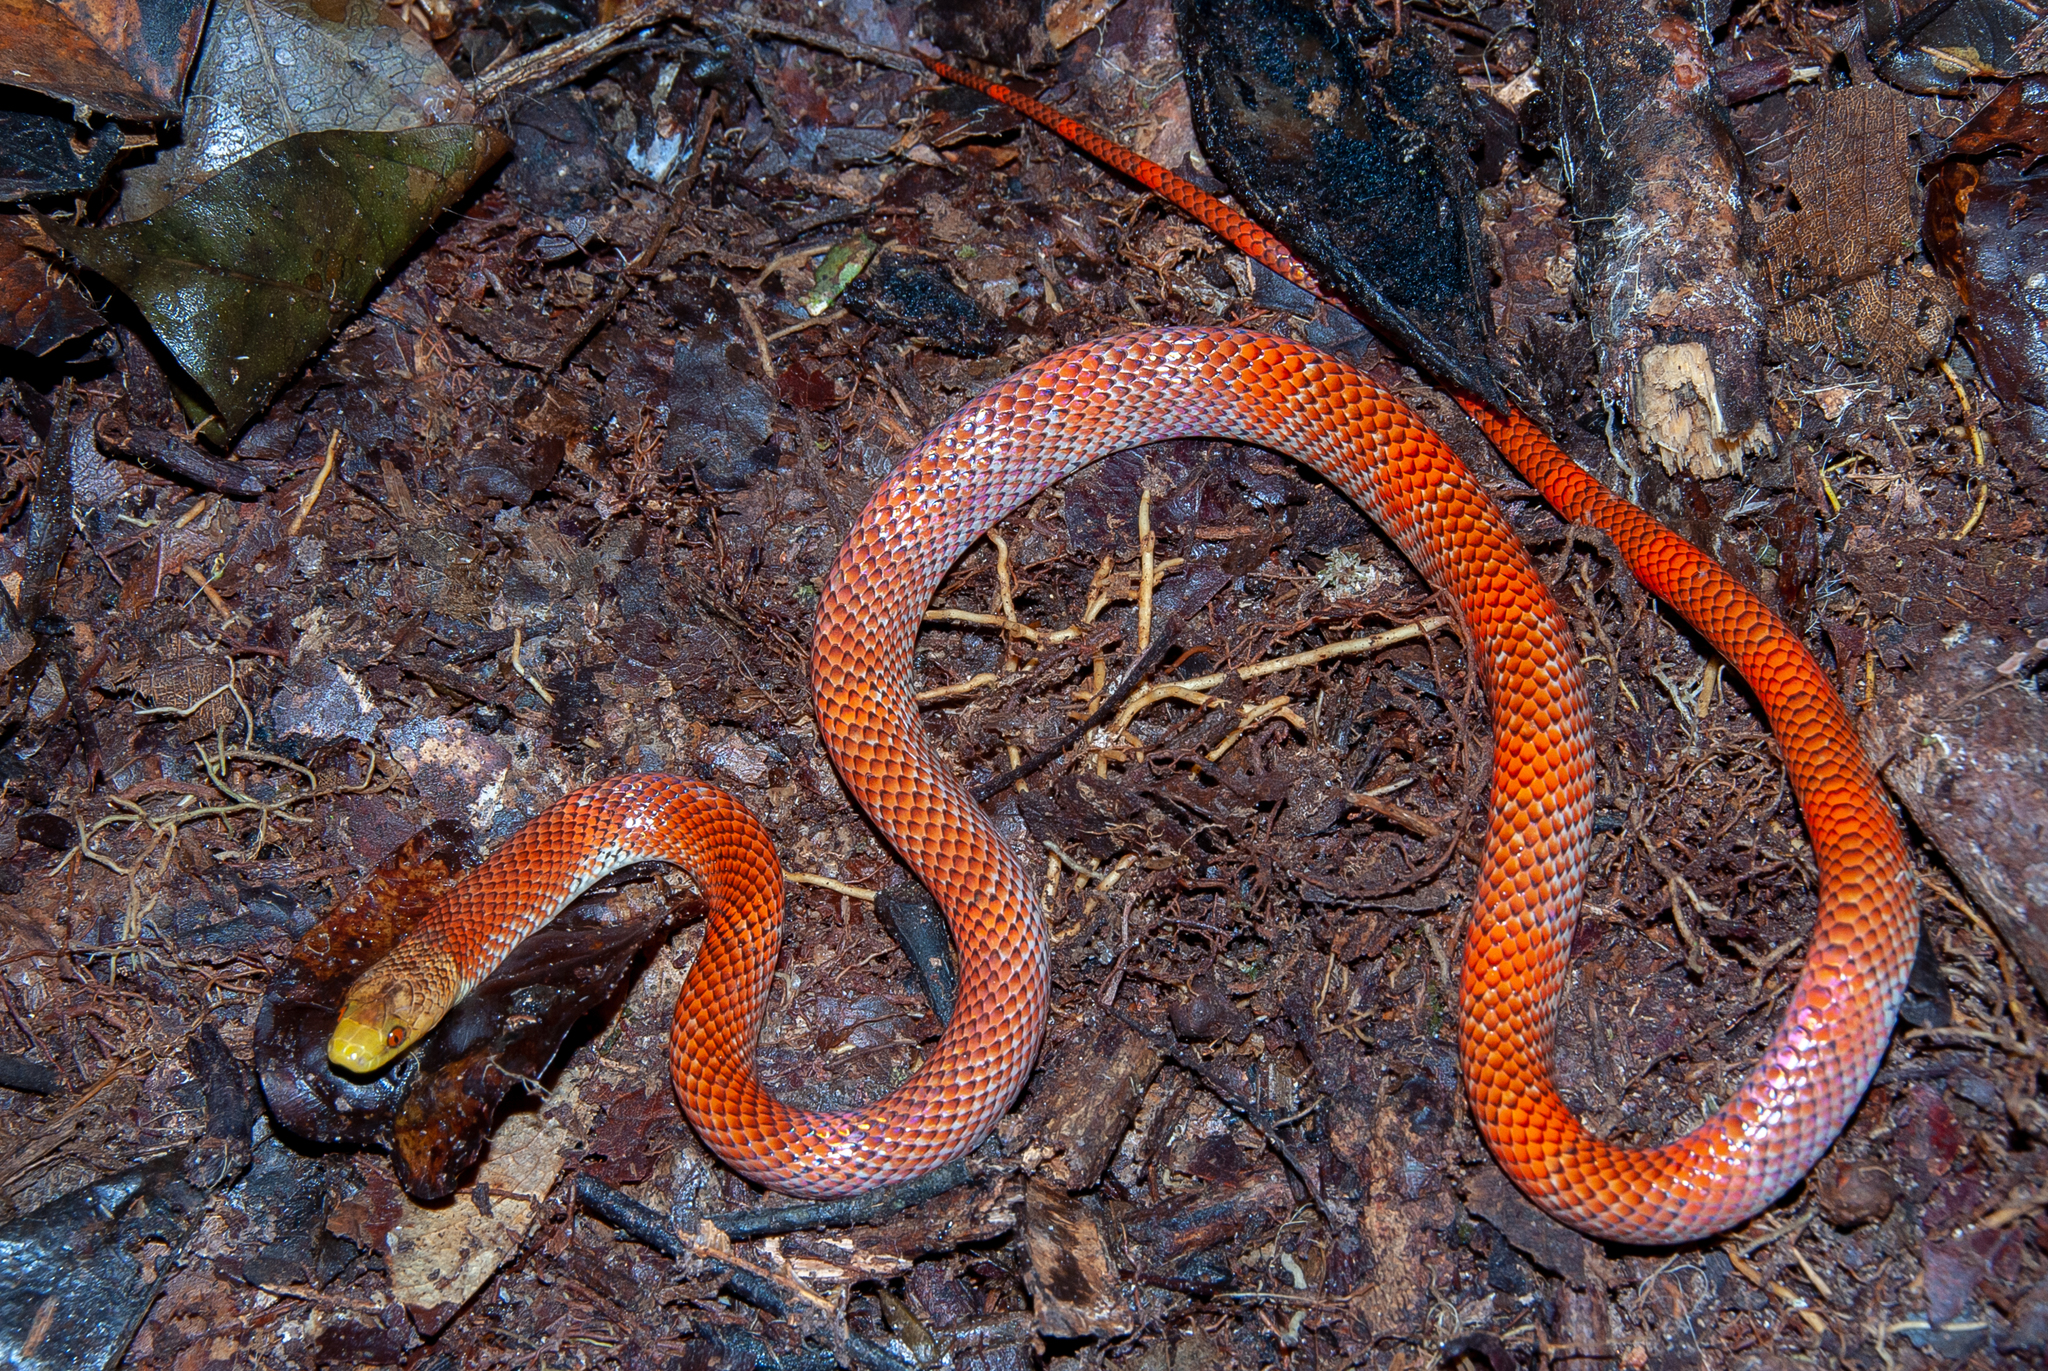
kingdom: Animalia
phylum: Chordata
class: Squamata
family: Colubridae
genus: Oxyrhopus
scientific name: Oxyrhopus formosus
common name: Beautiful calico snake
